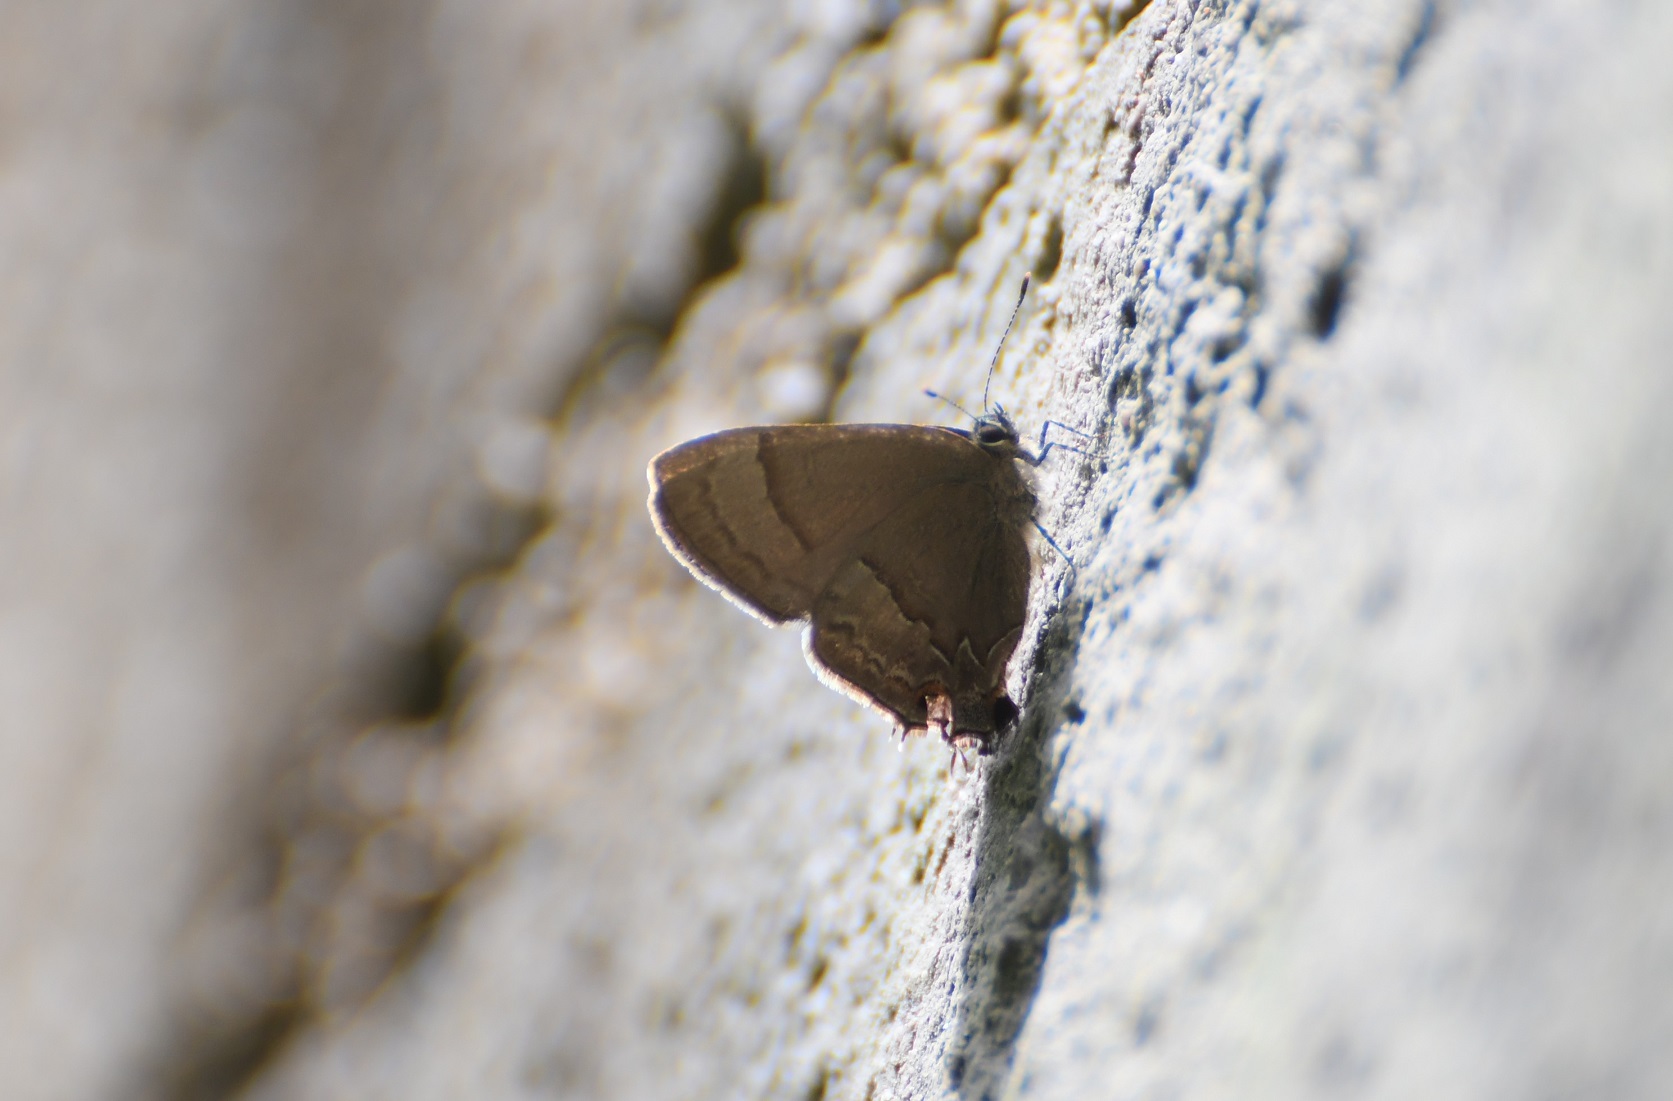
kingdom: Animalia
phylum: Arthropoda
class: Insecta
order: Lepidoptera
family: Lycaenidae
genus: Arzecla
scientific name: Arzecla sethon
